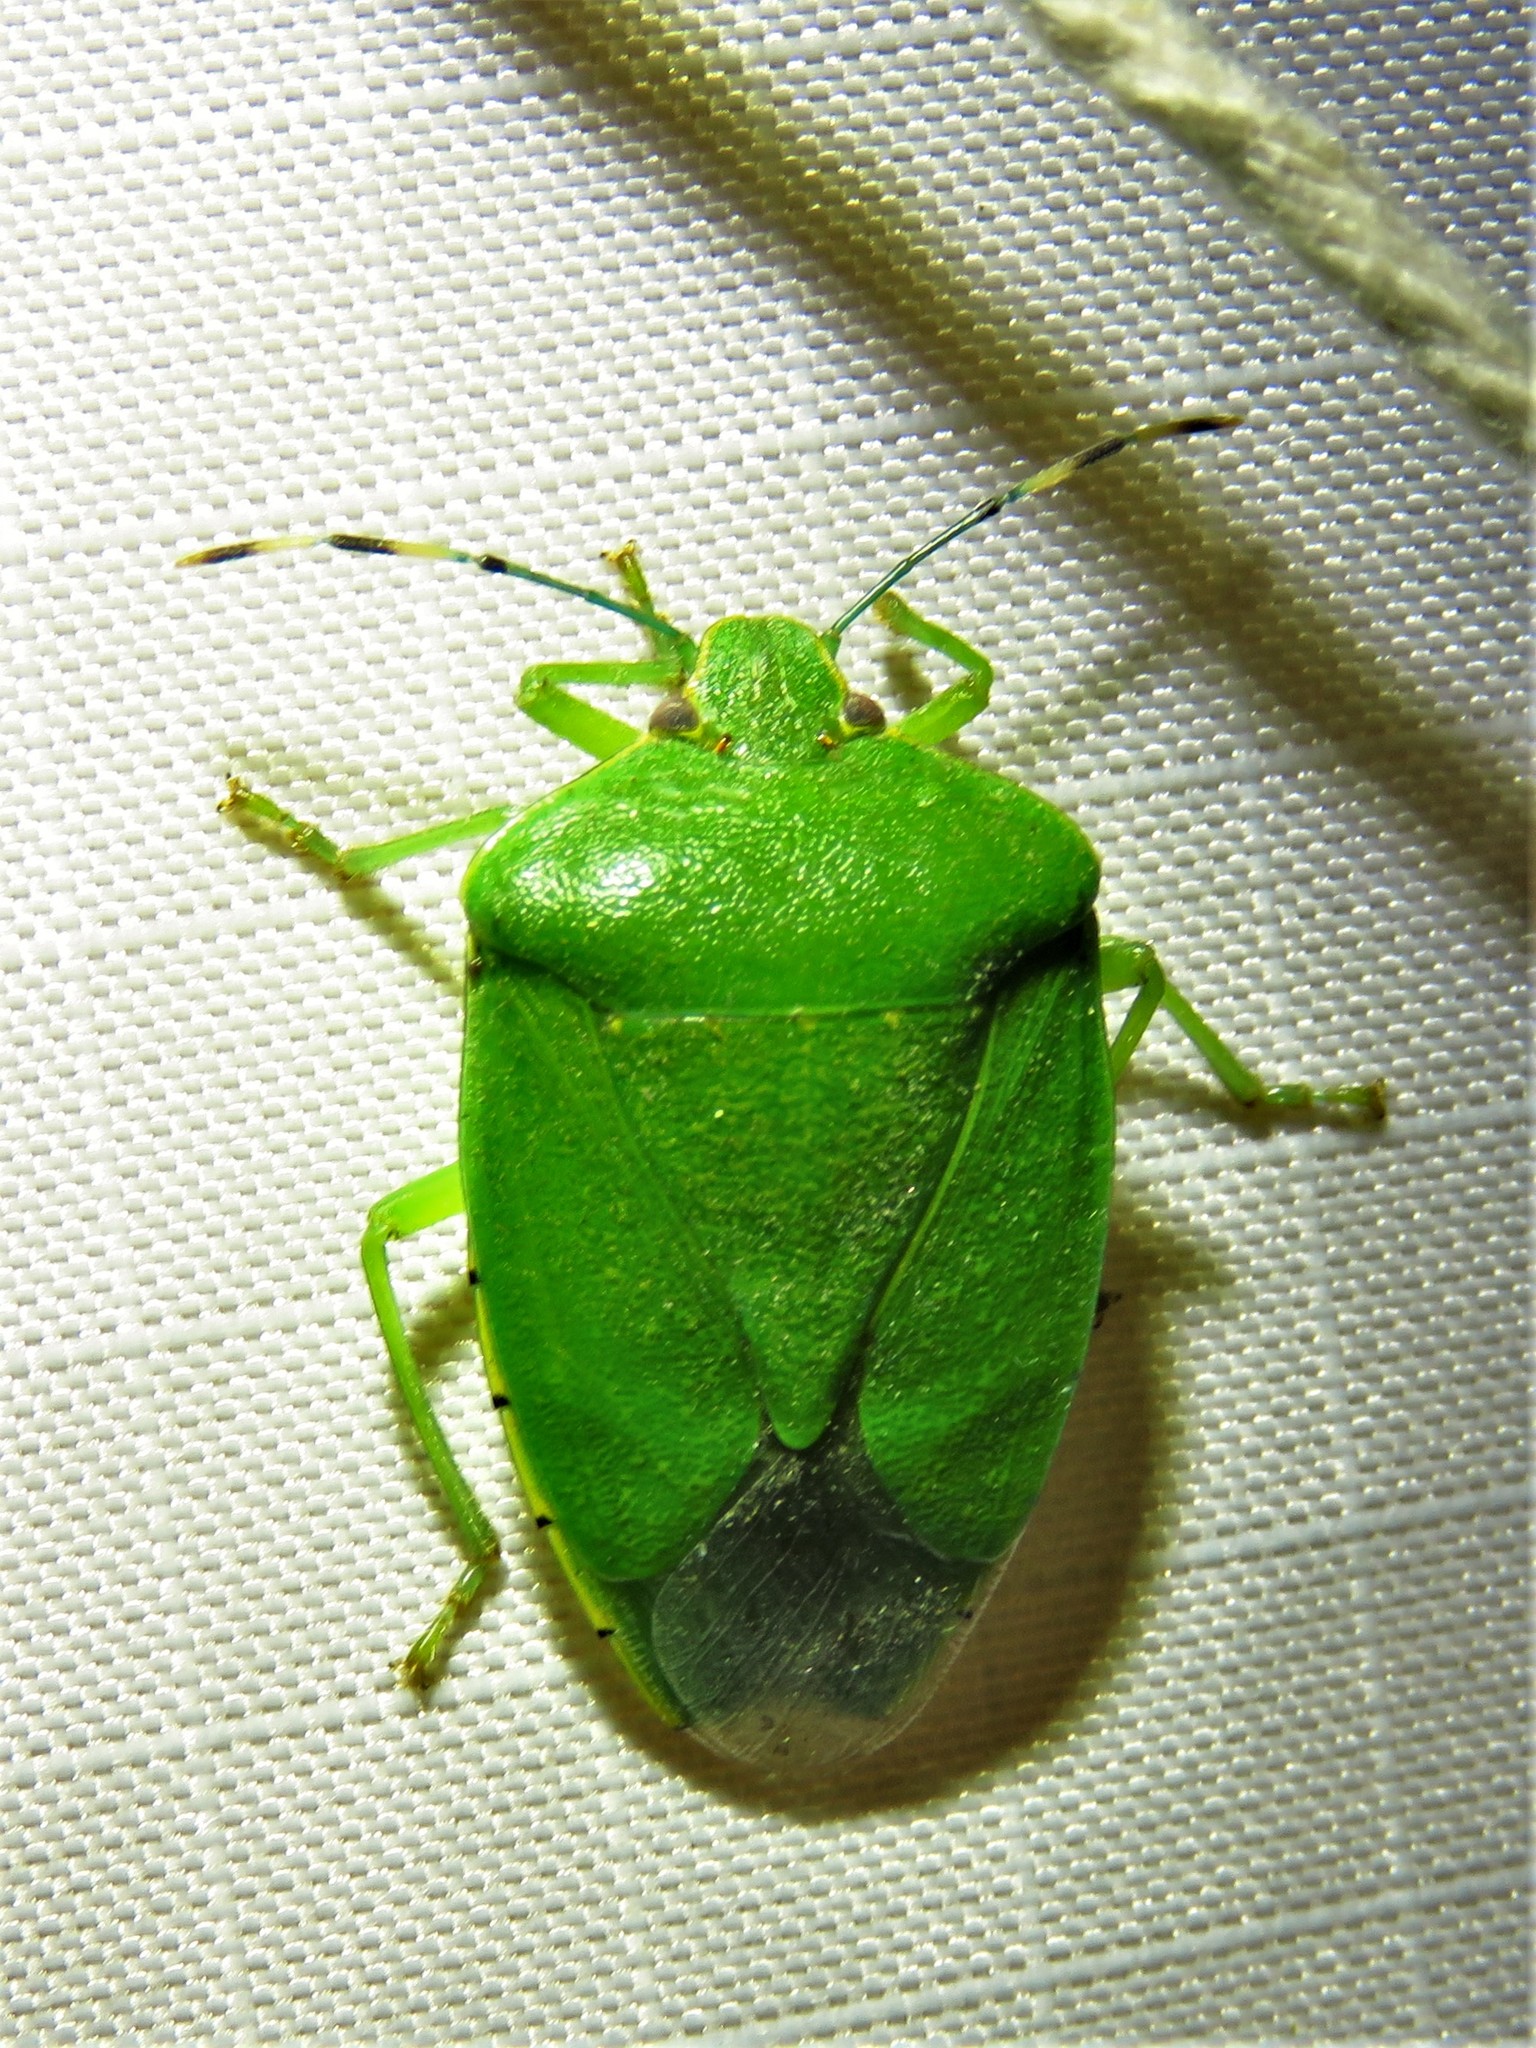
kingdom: Animalia
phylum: Arthropoda
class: Insecta
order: Hemiptera
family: Pentatomidae
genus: Chinavia
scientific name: Chinavia hilaris
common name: Green stink bug
